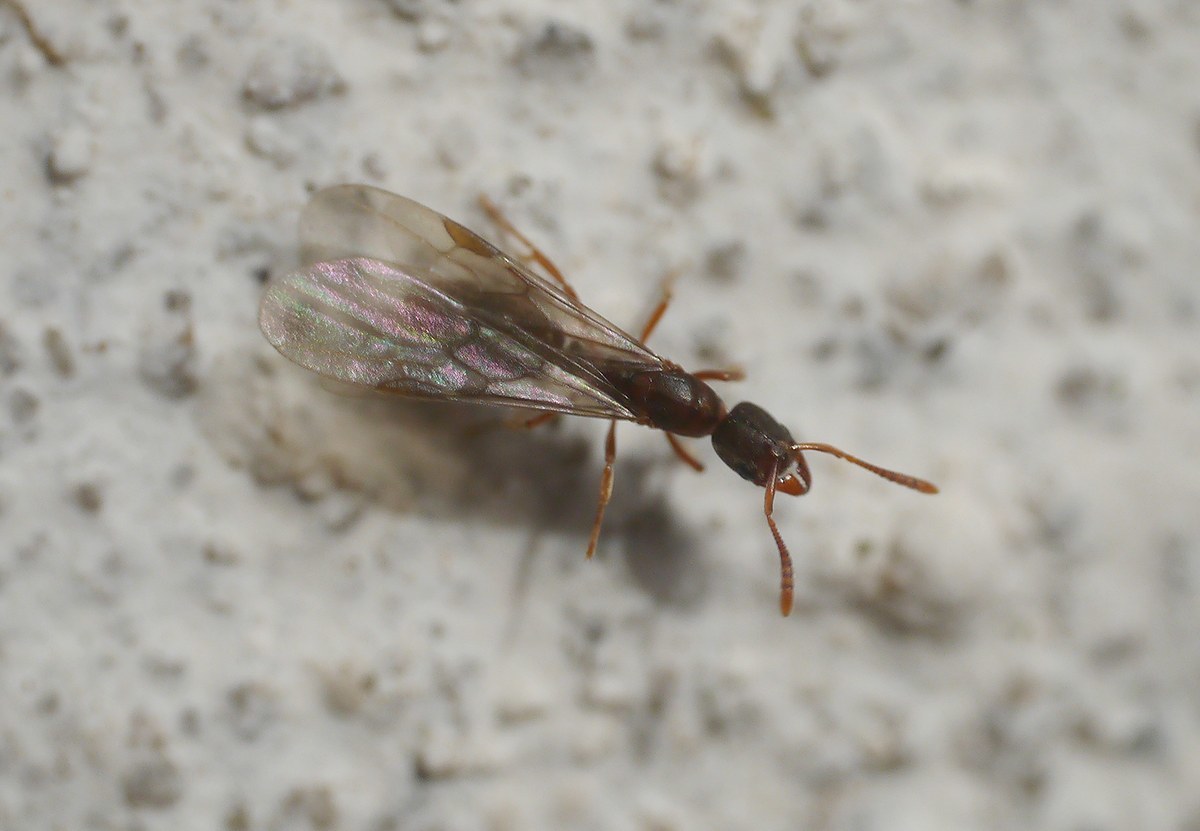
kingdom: Animalia
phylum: Arthropoda
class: Insecta
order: Hymenoptera
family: Formicidae
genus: Ponera
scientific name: Ponera coarctata
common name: Indolent ant
